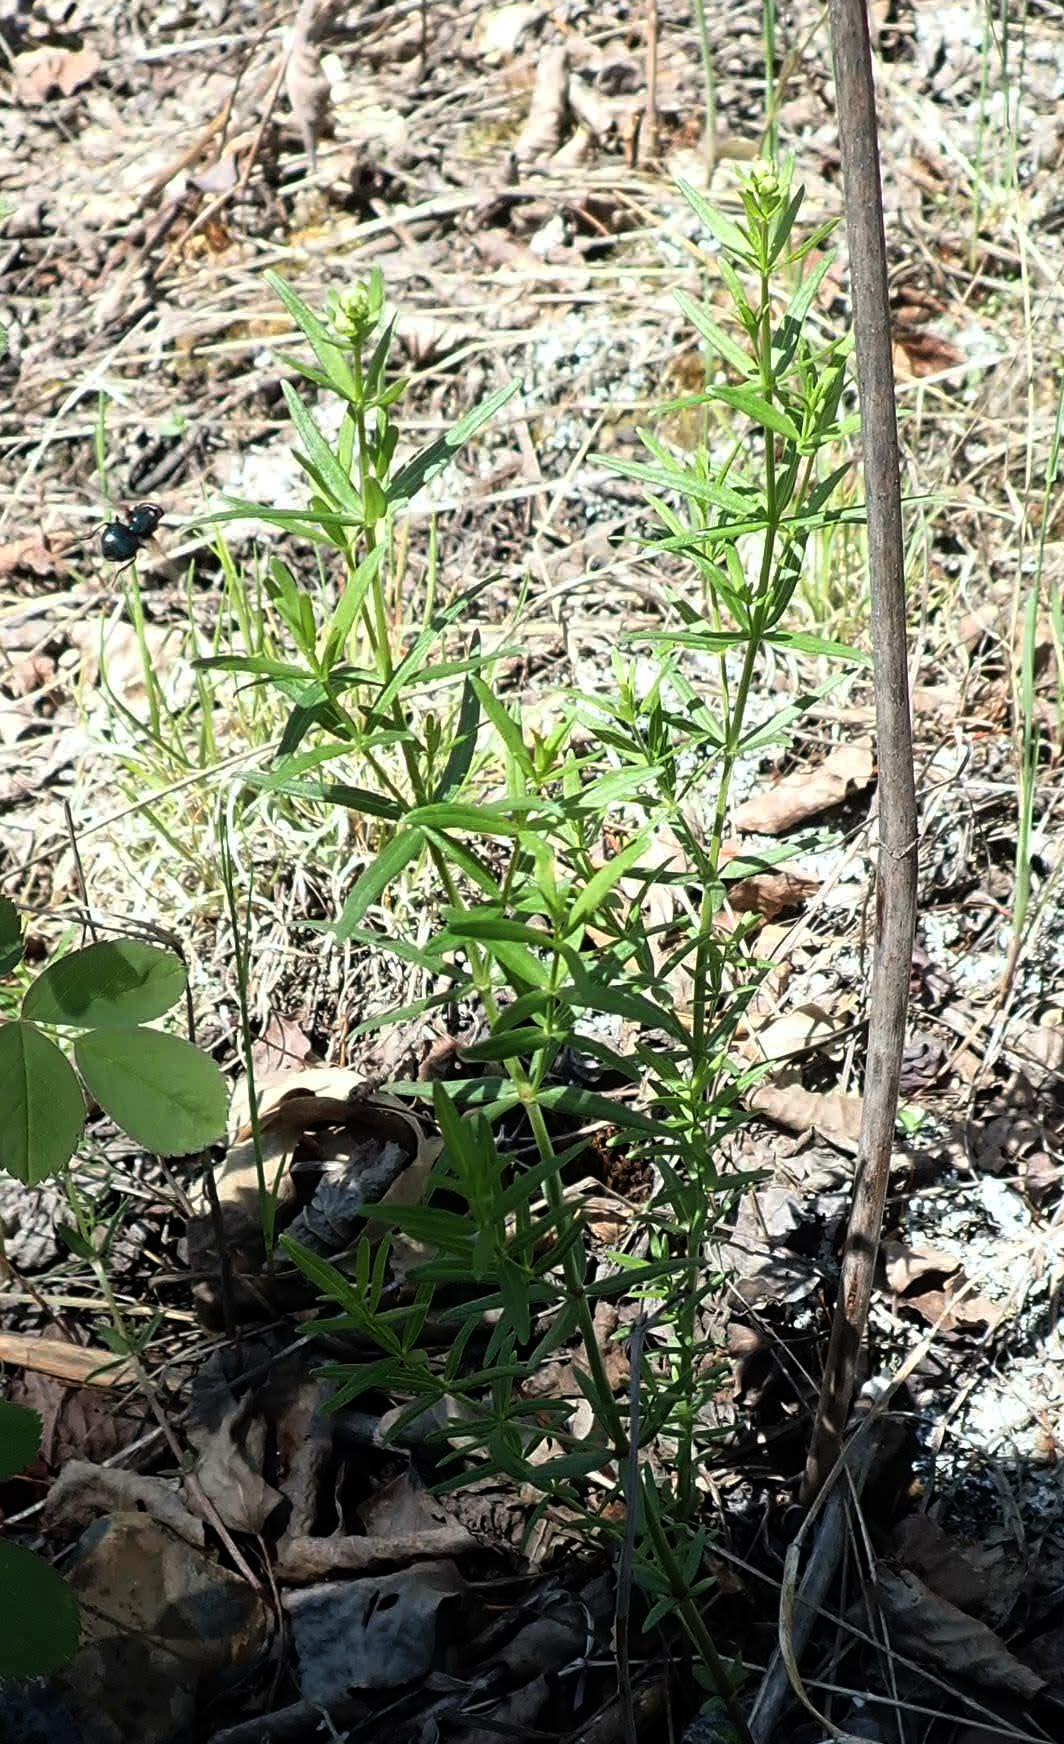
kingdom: Plantae
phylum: Tracheophyta
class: Magnoliopsida
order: Gentianales
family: Rubiaceae
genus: Galium
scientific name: Galium boreale
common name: Northern bedstraw
